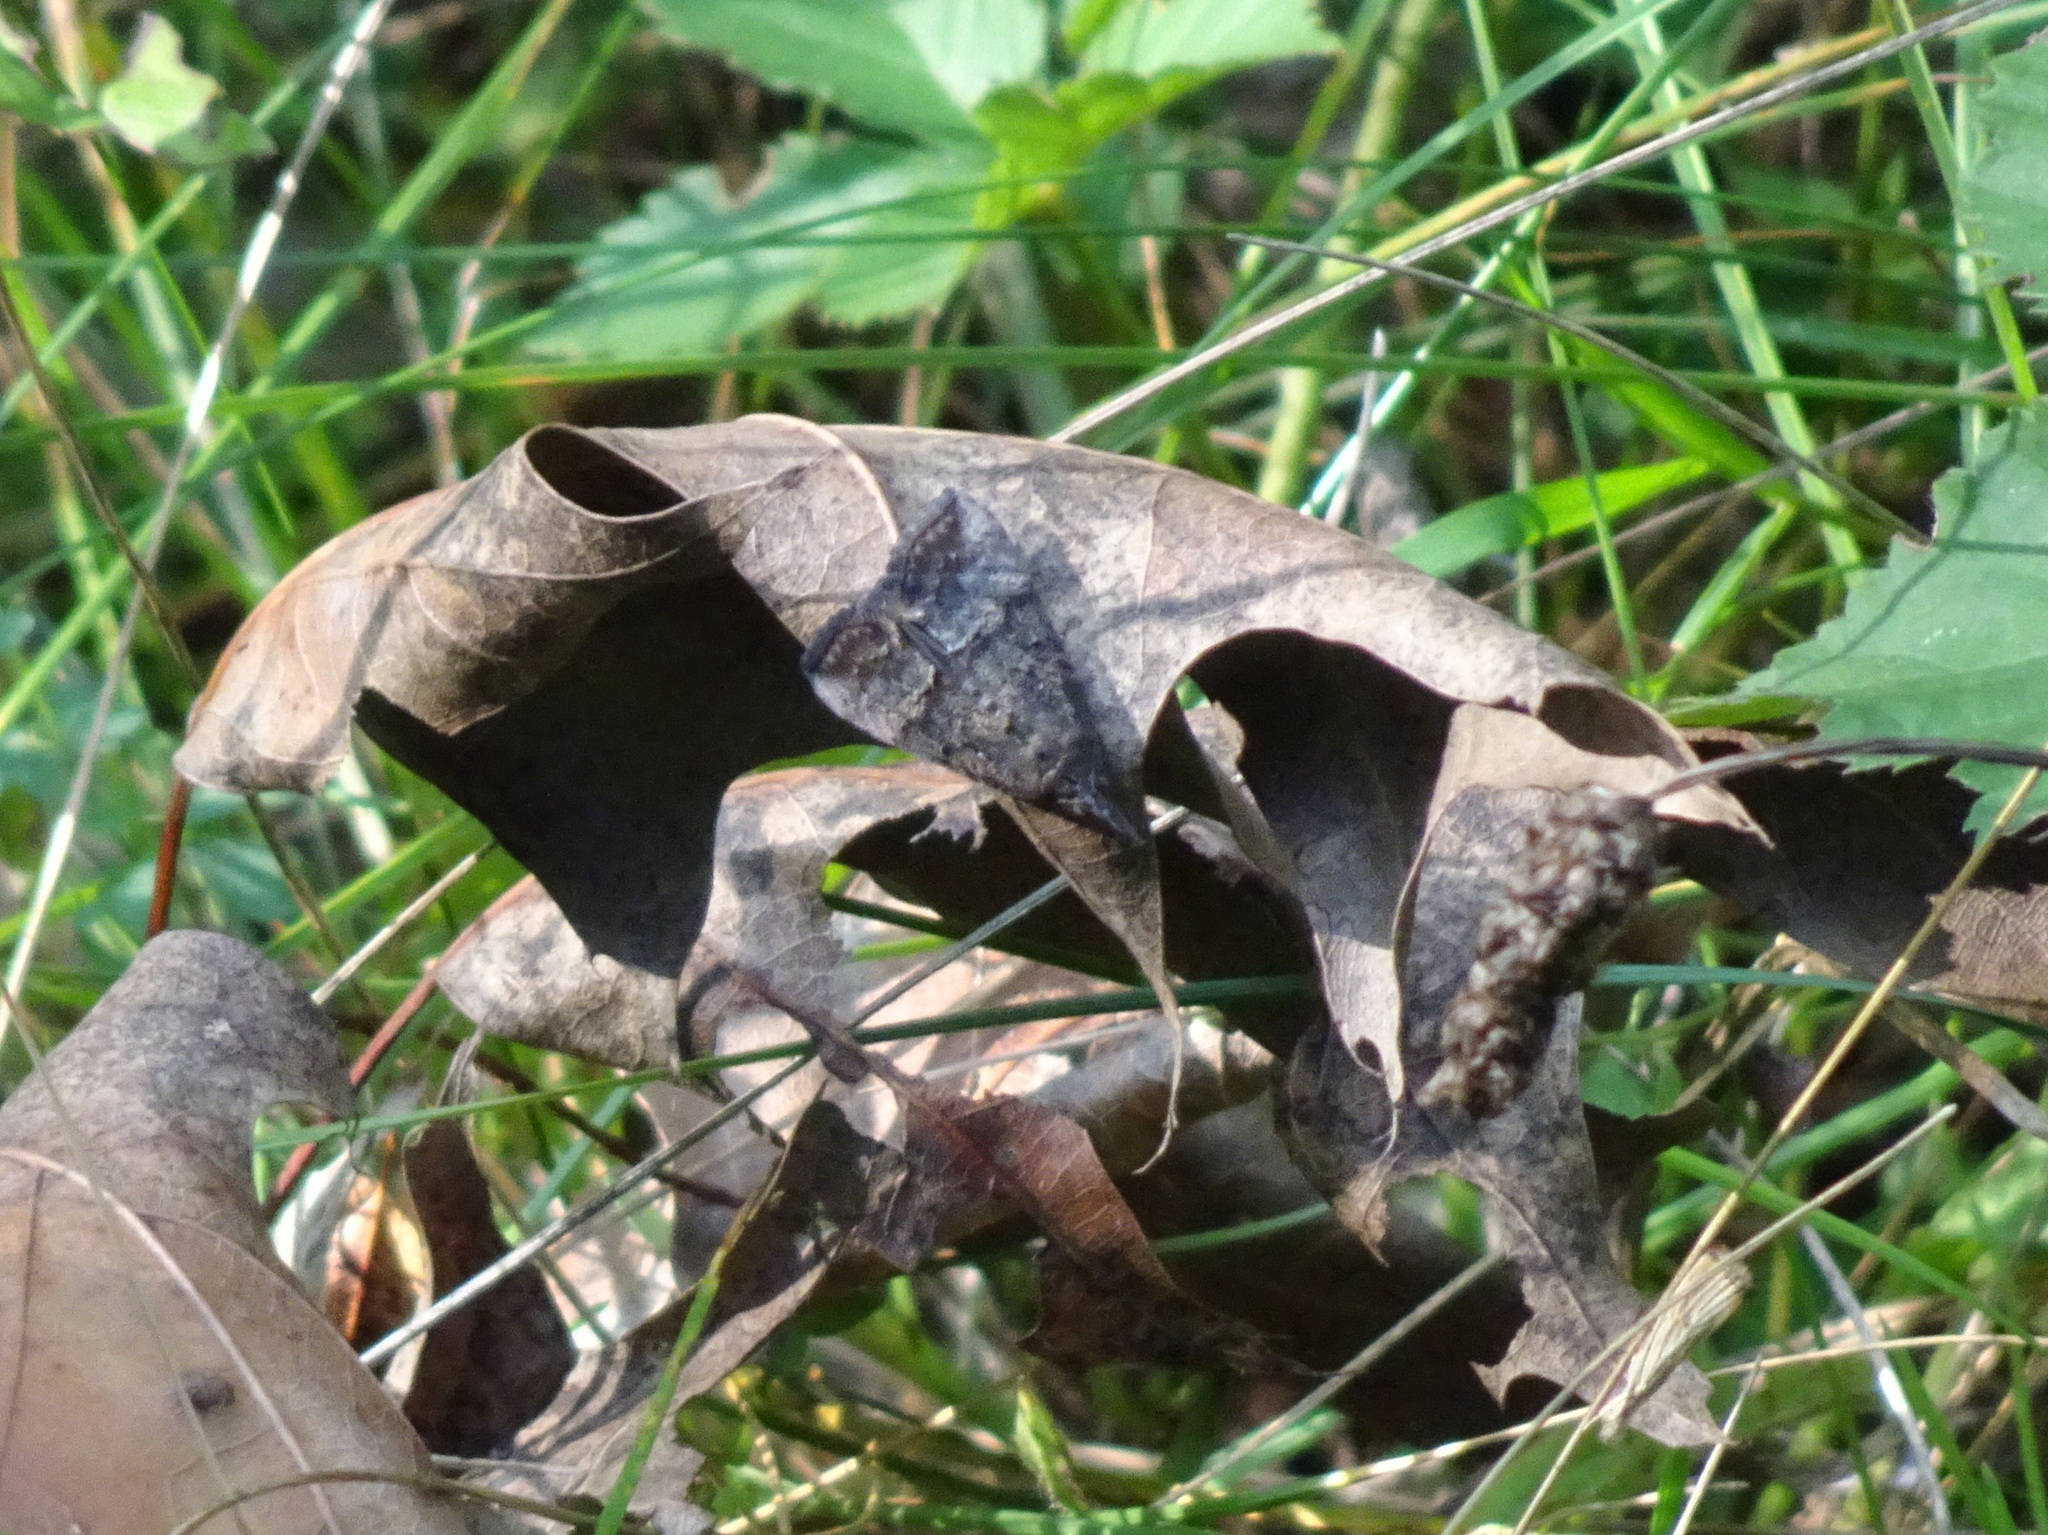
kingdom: Animalia
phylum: Arthropoda
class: Insecta
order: Lepidoptera
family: Erebidae
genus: Hypena
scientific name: Hypena scabra
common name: Green cloverworm
